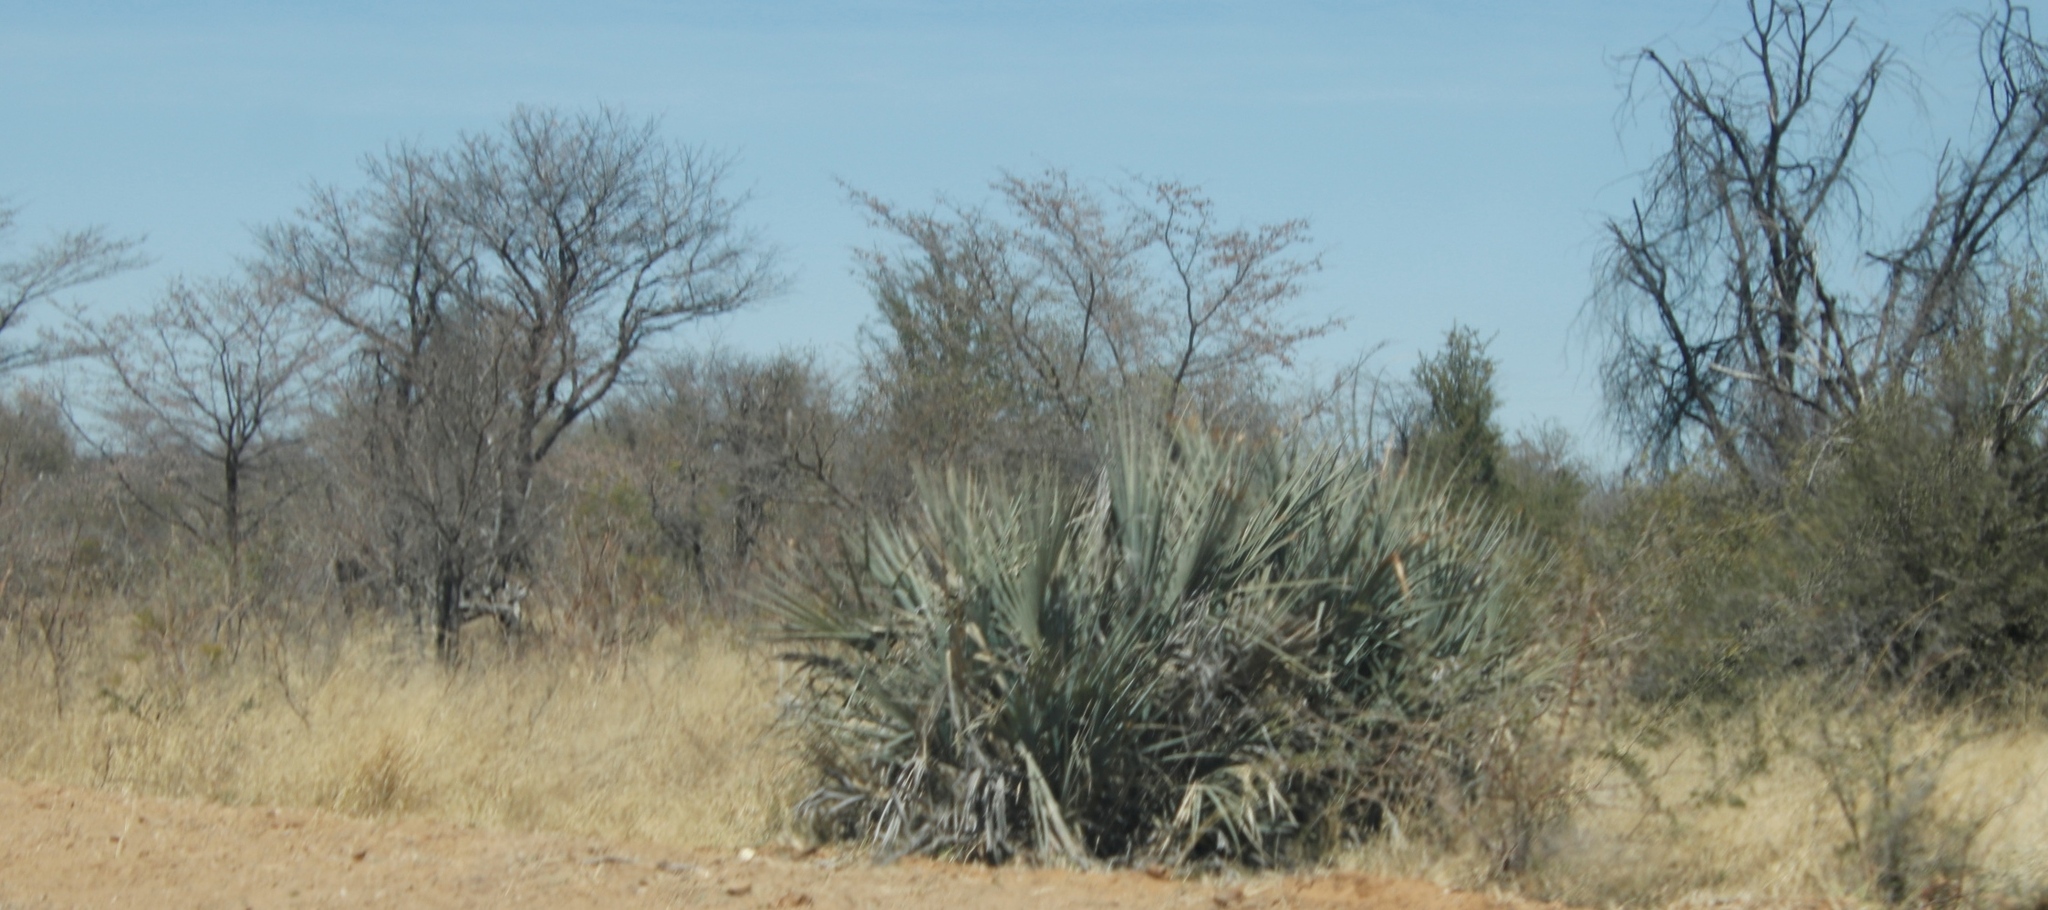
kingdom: Plantae
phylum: Tracheophyta
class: Liliopsida
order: Arecales
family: Arecaceae
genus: Hyphaene
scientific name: Hyphaene petersiana
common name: African ivory nut palm
